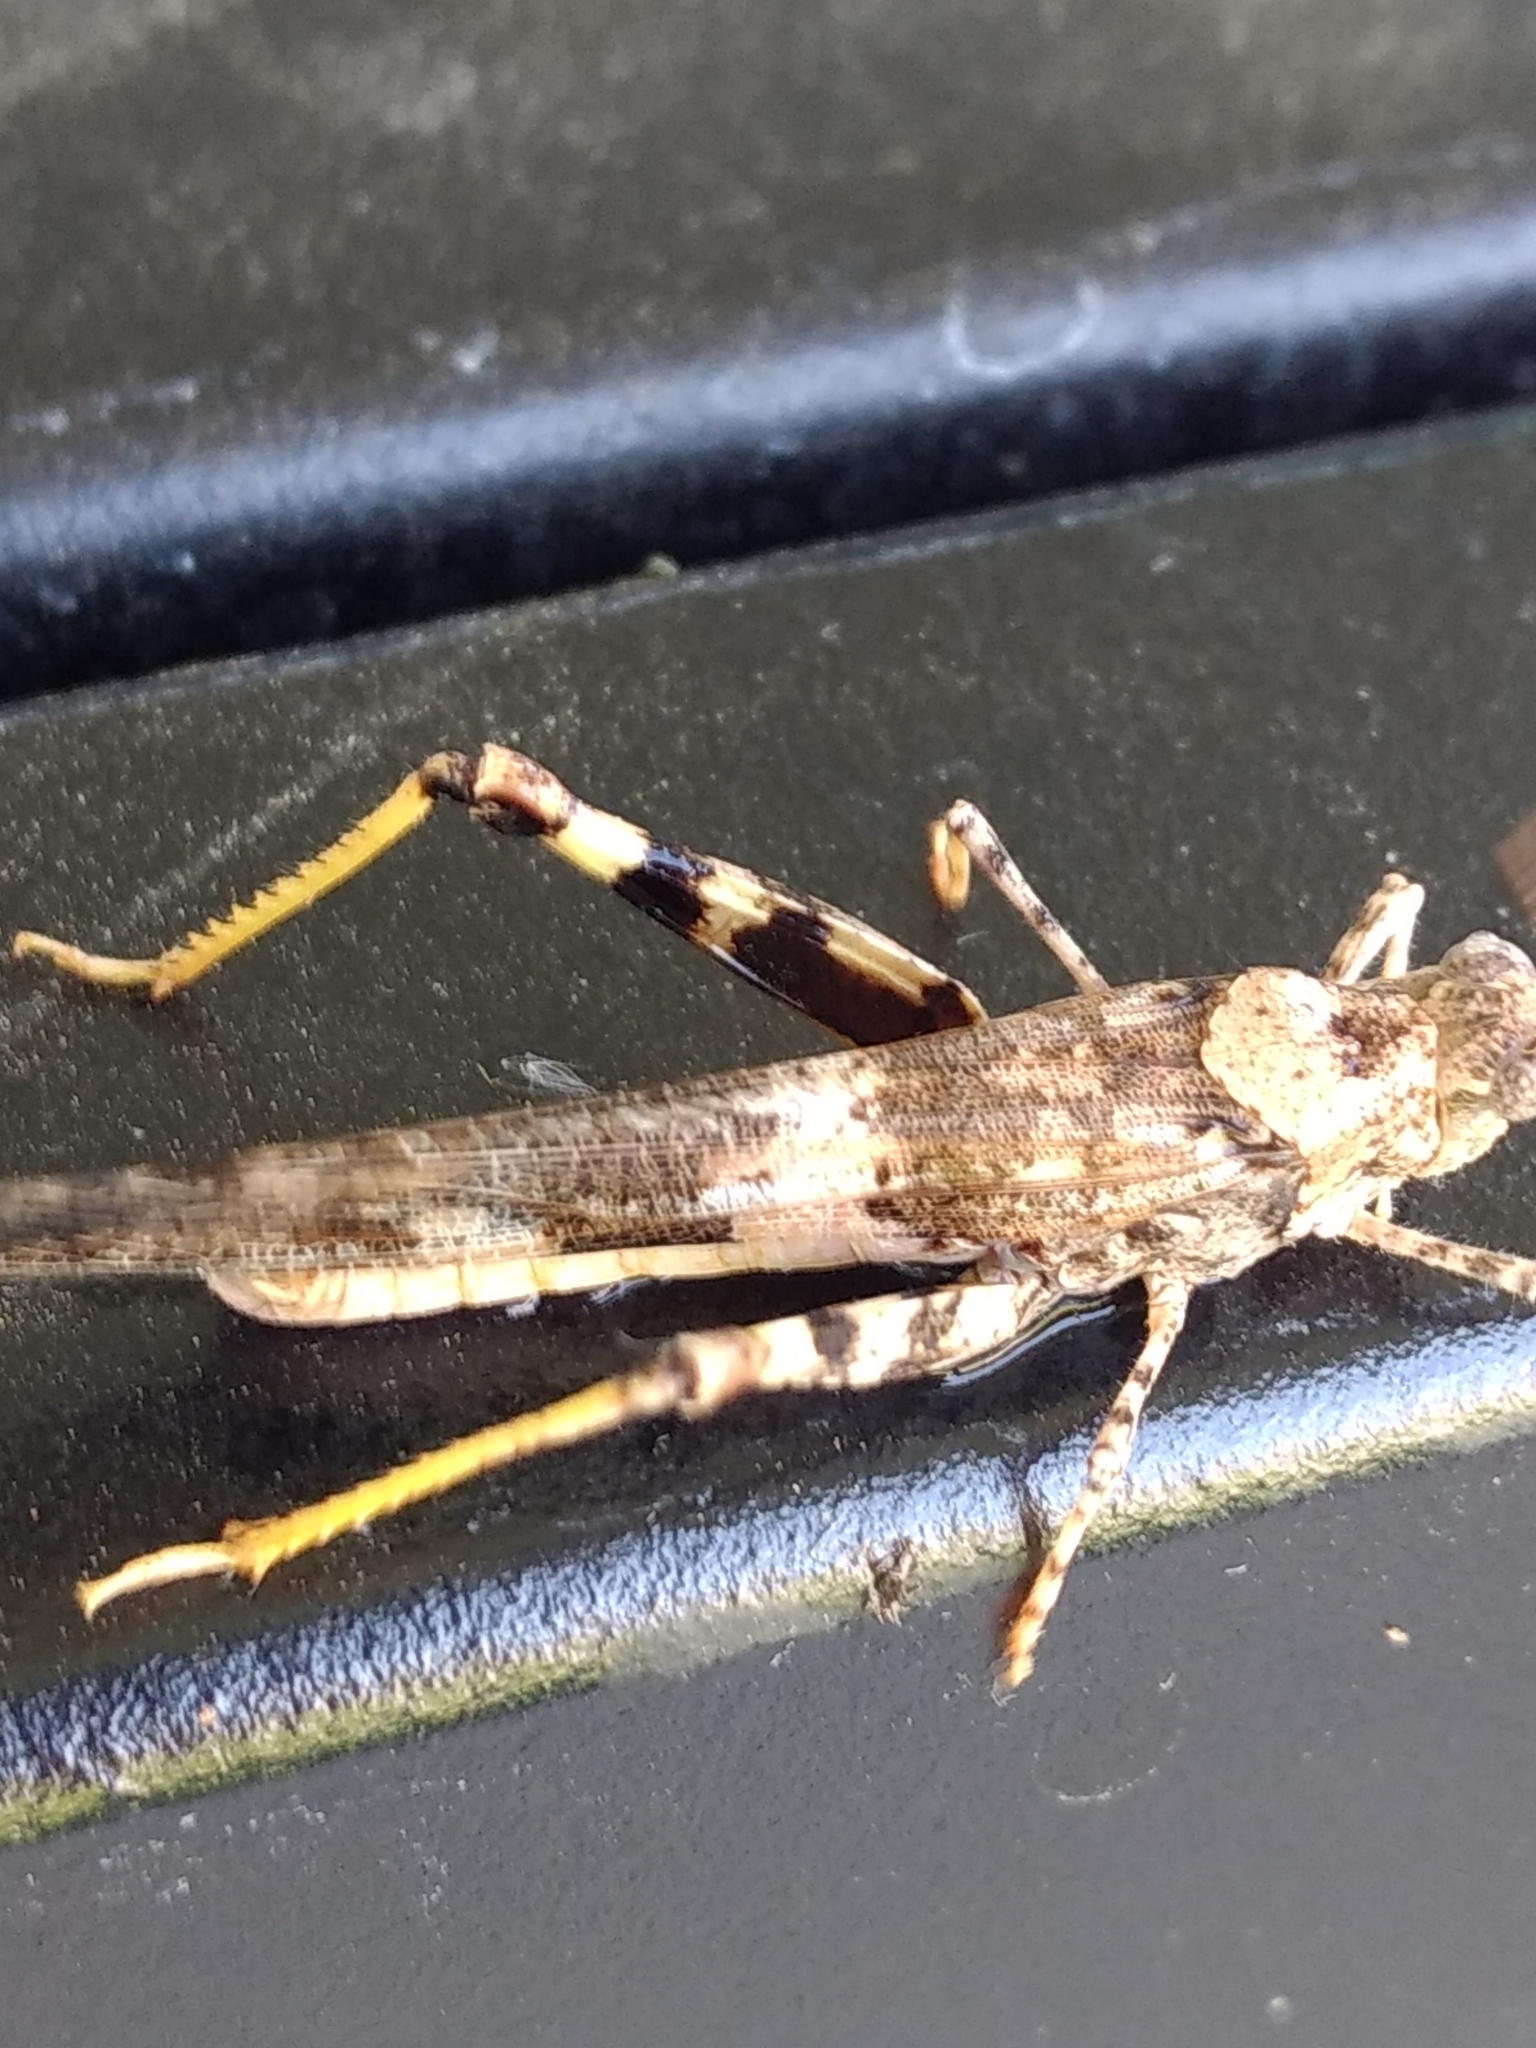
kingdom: Animalia
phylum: Arthropoda
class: Insecta
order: Orthoptera
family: Acrididae
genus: Trimerotropis
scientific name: Trimerotropis pallidipennis
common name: Pallid-winged grasshopper
